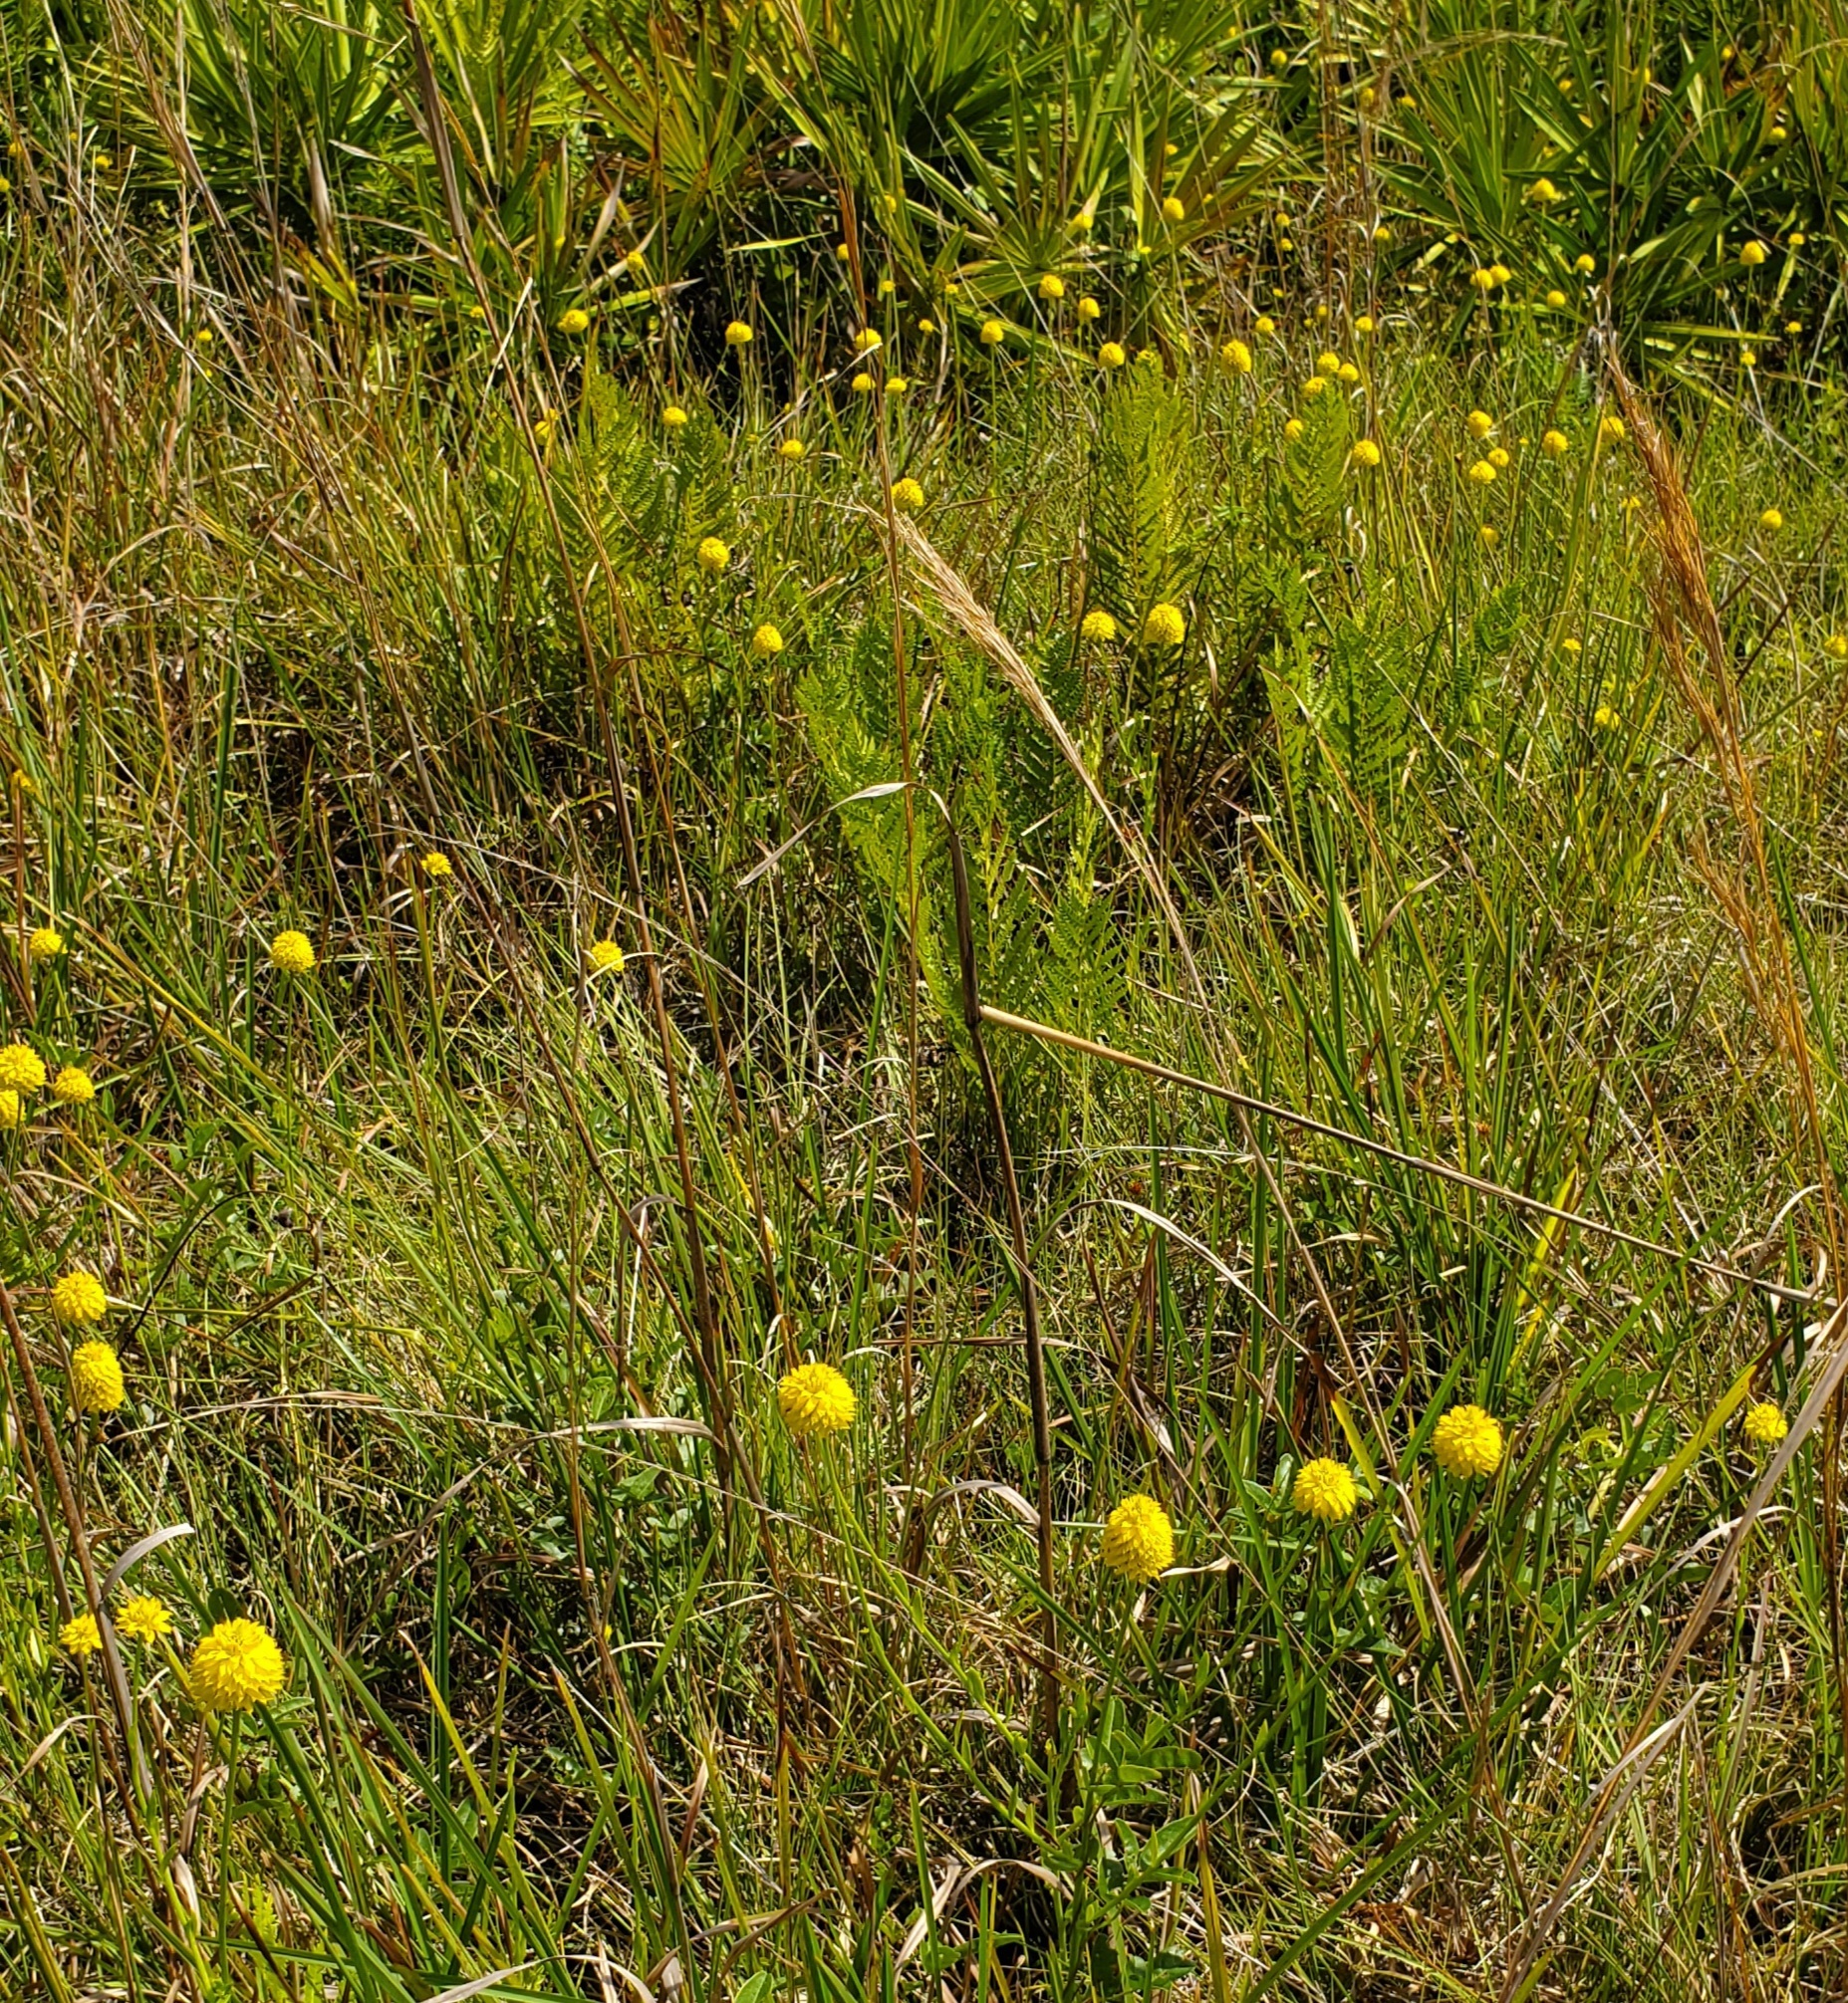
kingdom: Plantae
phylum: Tracheophyta
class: Magnoliopsida
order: Fabales
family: Polygalaceae
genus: Polygala
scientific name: Polygala rugelii
